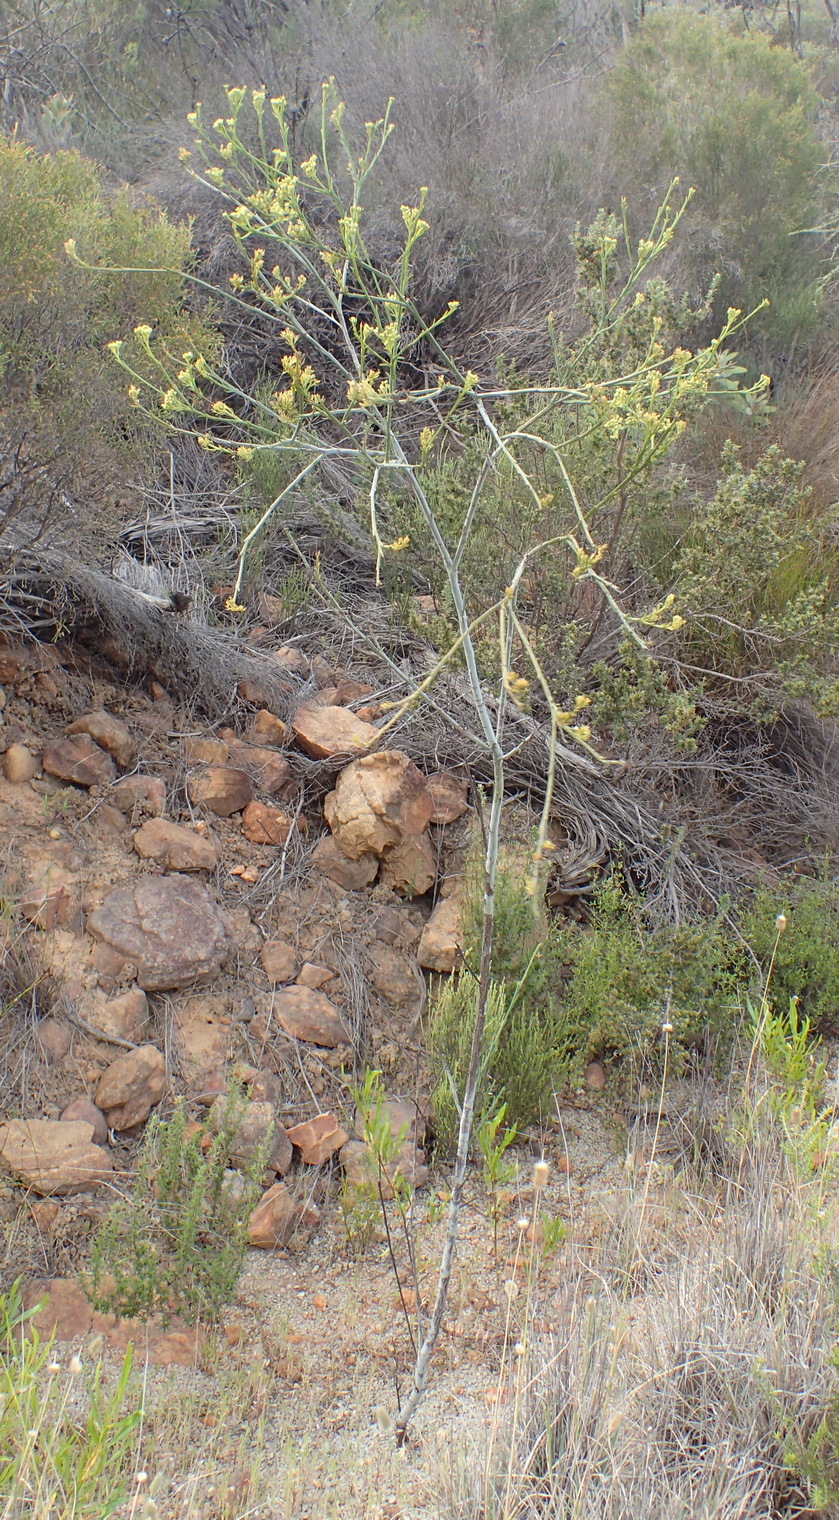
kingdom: Plantae
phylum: Tracheophyta
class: Magnoliopsida
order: Santalales
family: Thesiaceae
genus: Thesium
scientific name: Thesium strictum
